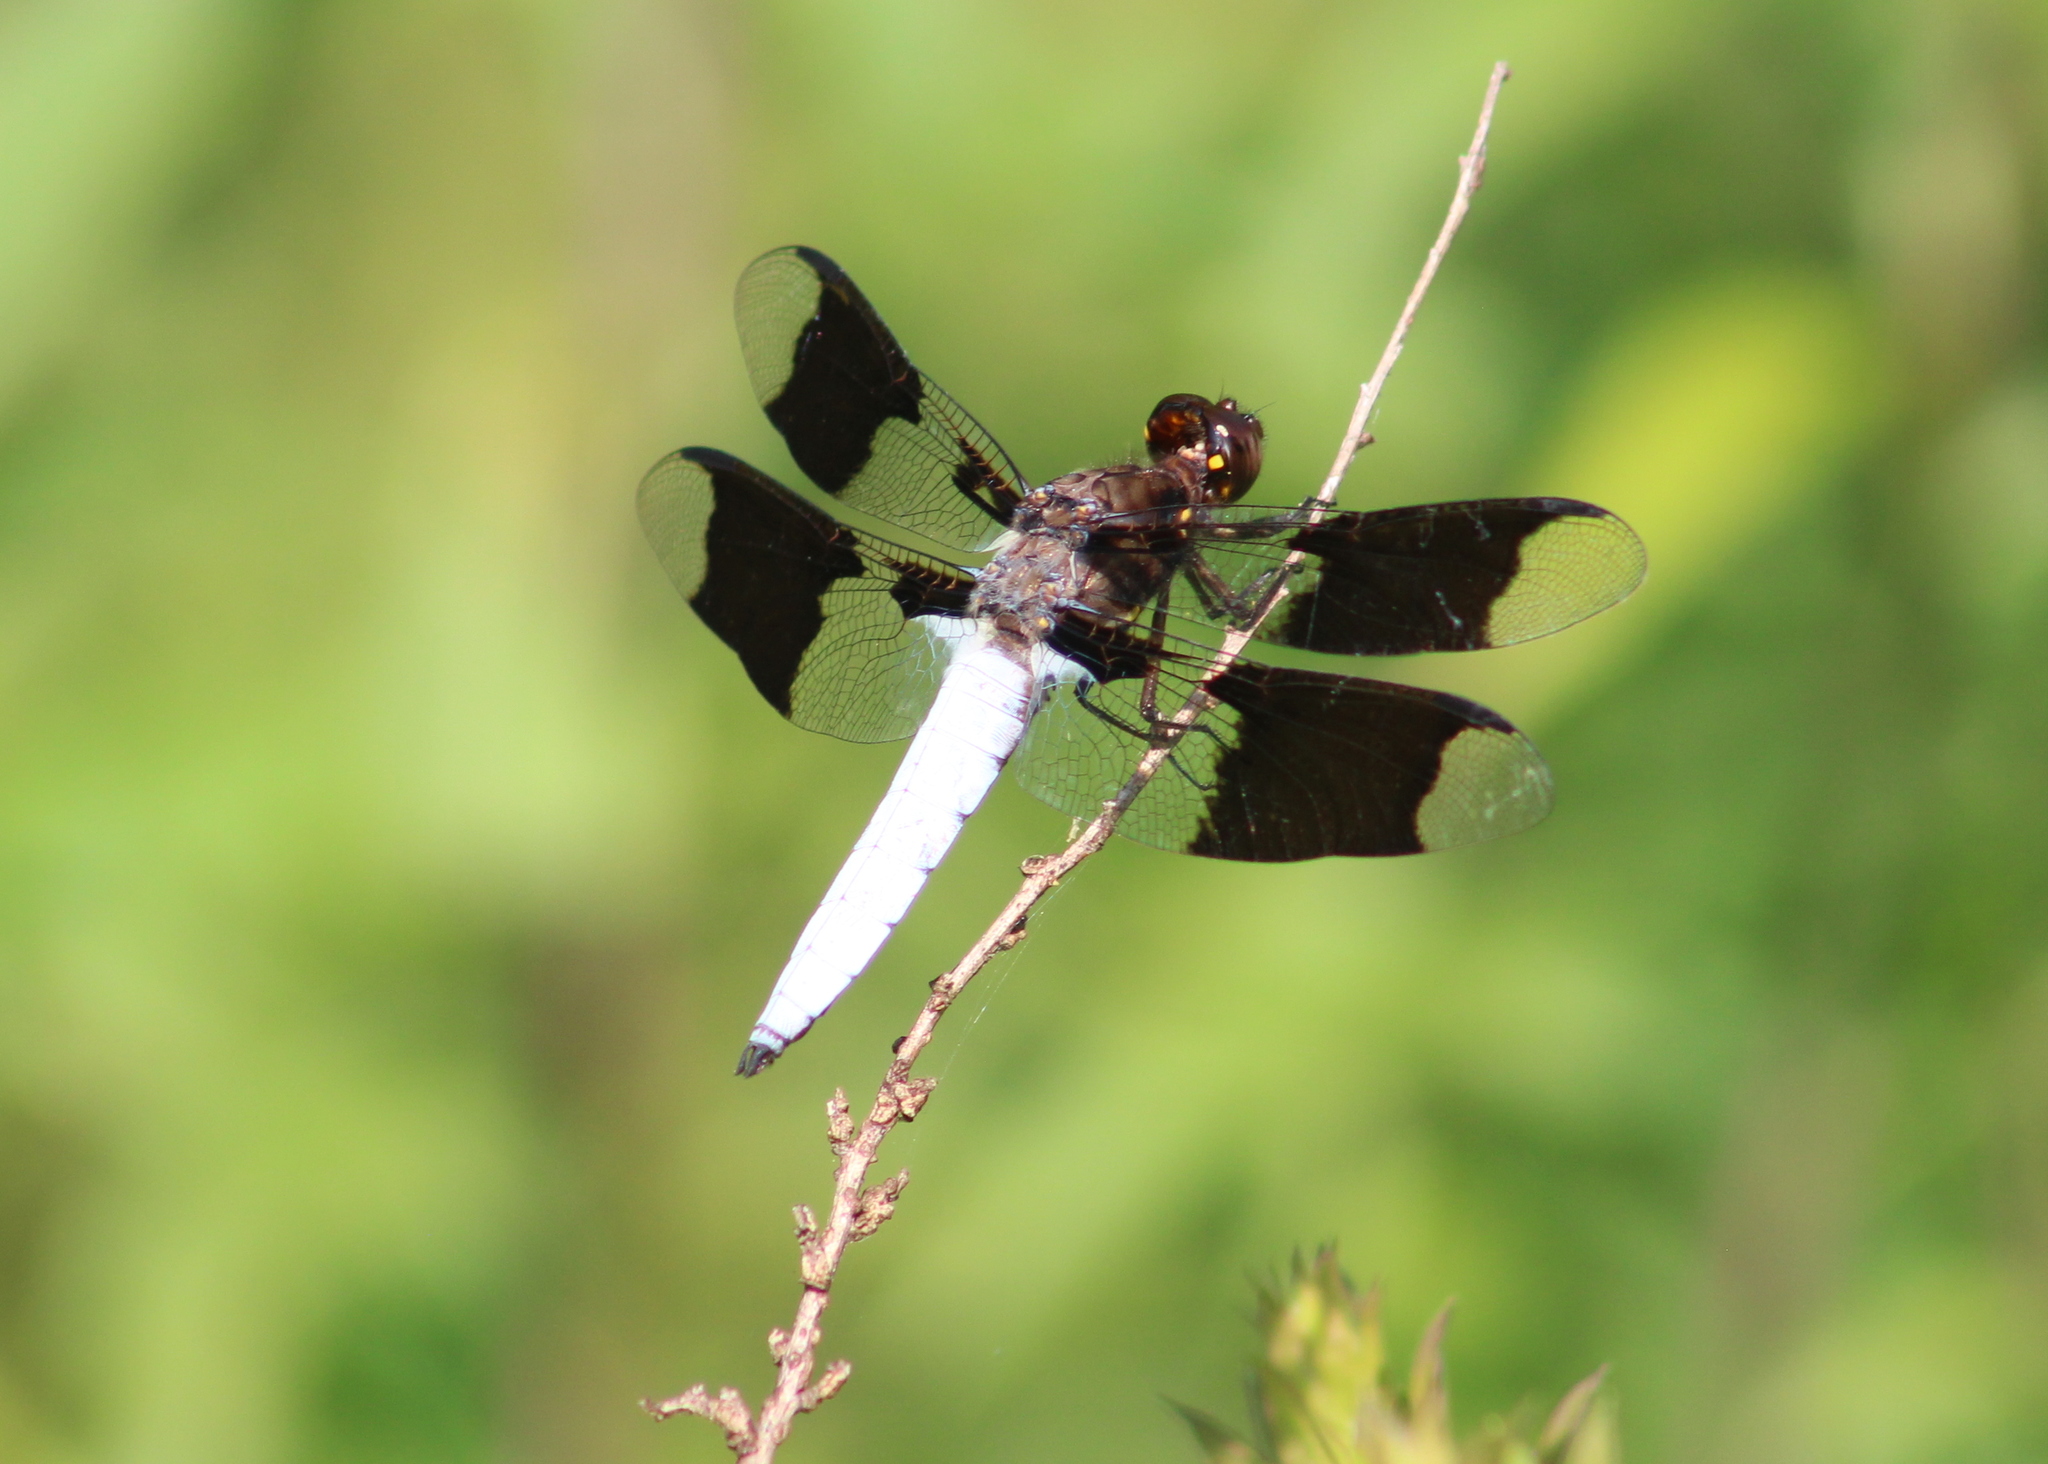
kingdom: Animalia
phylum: Arthropoda
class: Insecta
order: Odonata
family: Libellulidae
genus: Plathemis
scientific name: Plathemis lydia
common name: Common whitetail
